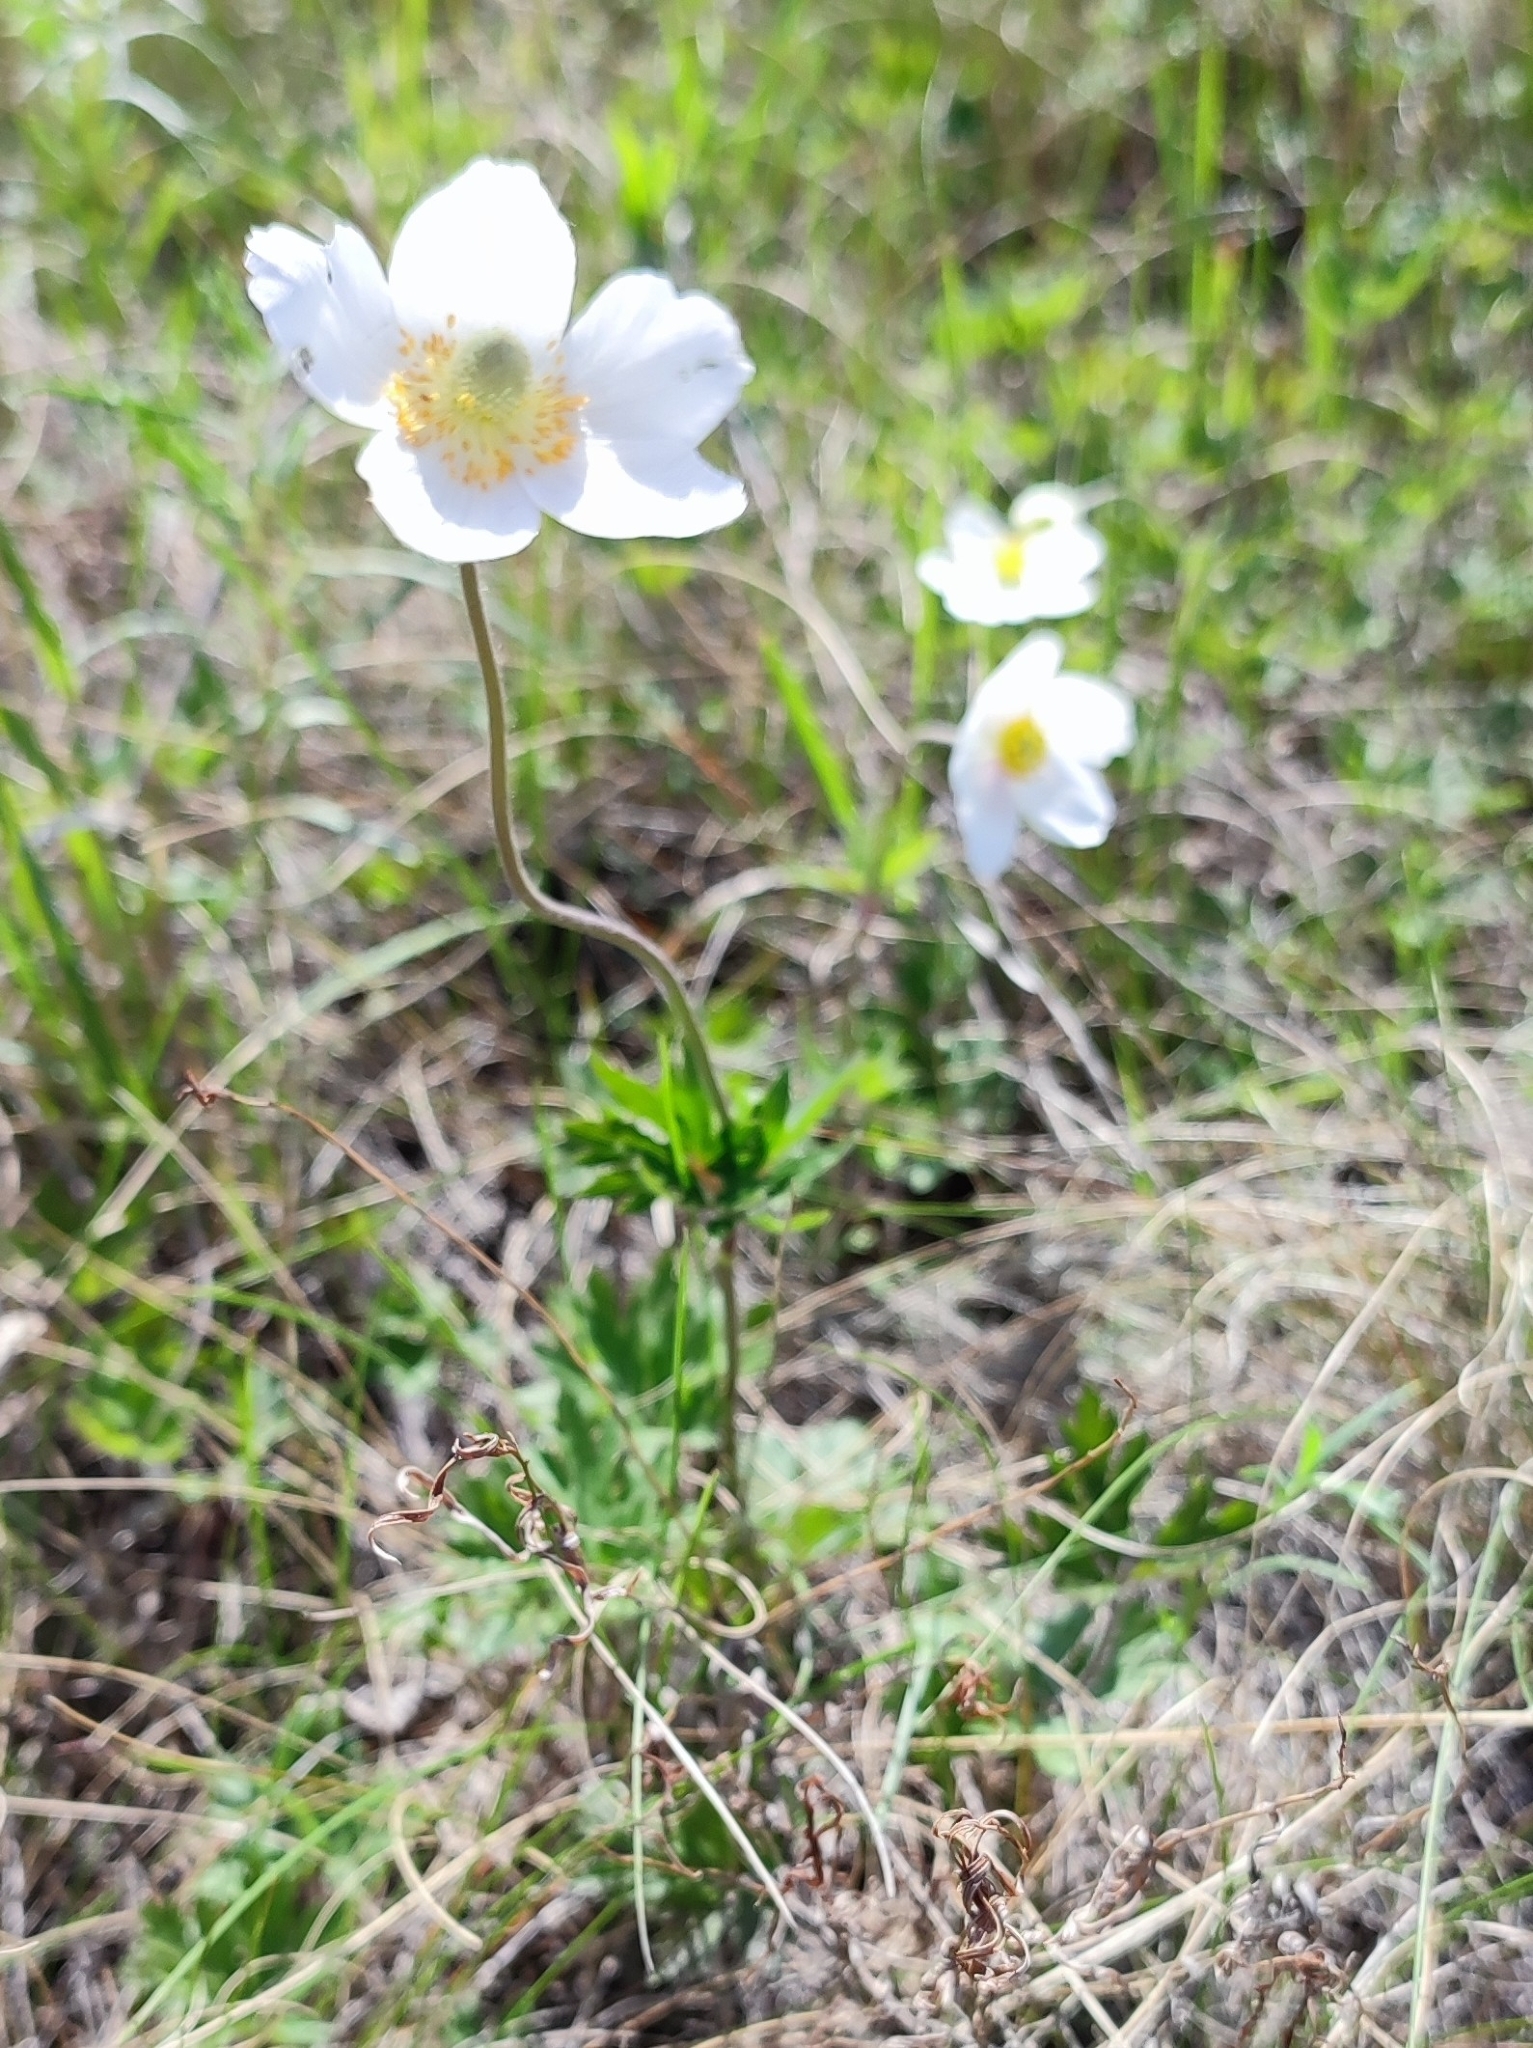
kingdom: Plantae
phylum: Tracheophyta
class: Magnoliopsida
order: Ranunculales
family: Ranunculaceae
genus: Anemone
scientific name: Anemone sylvestris
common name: Snowdrop anemone
